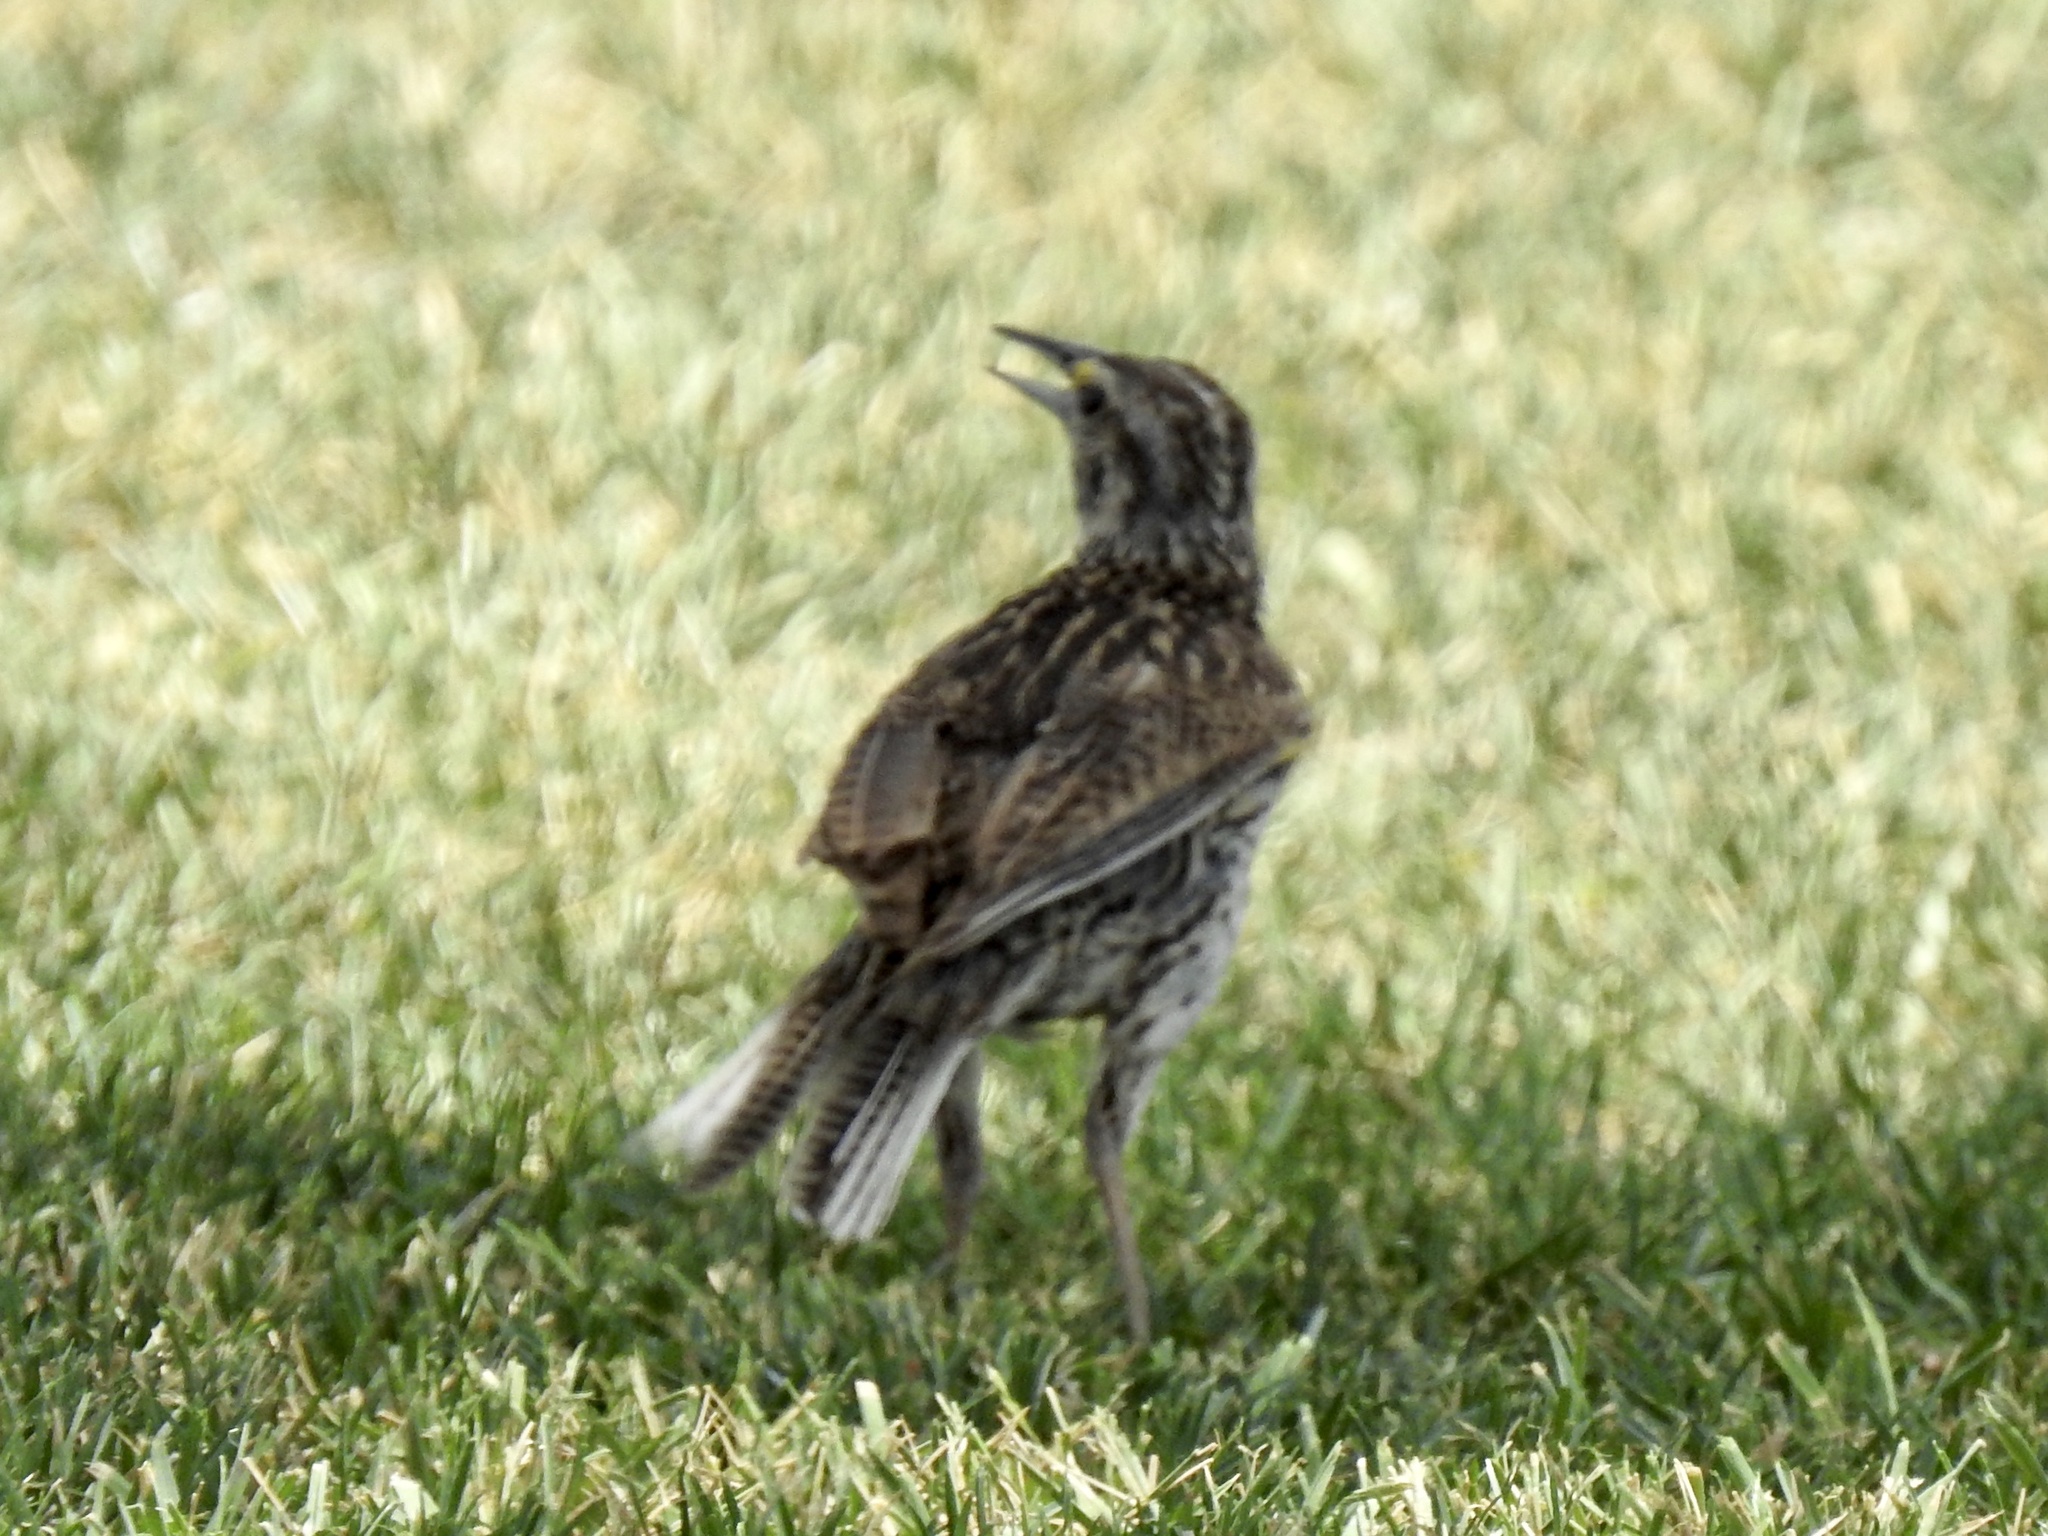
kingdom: Animalia
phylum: Chordata
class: Aves
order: Passeriformes
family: Icteridae
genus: Sturnella
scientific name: Sturnella neglecta
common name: Western meadowlark
